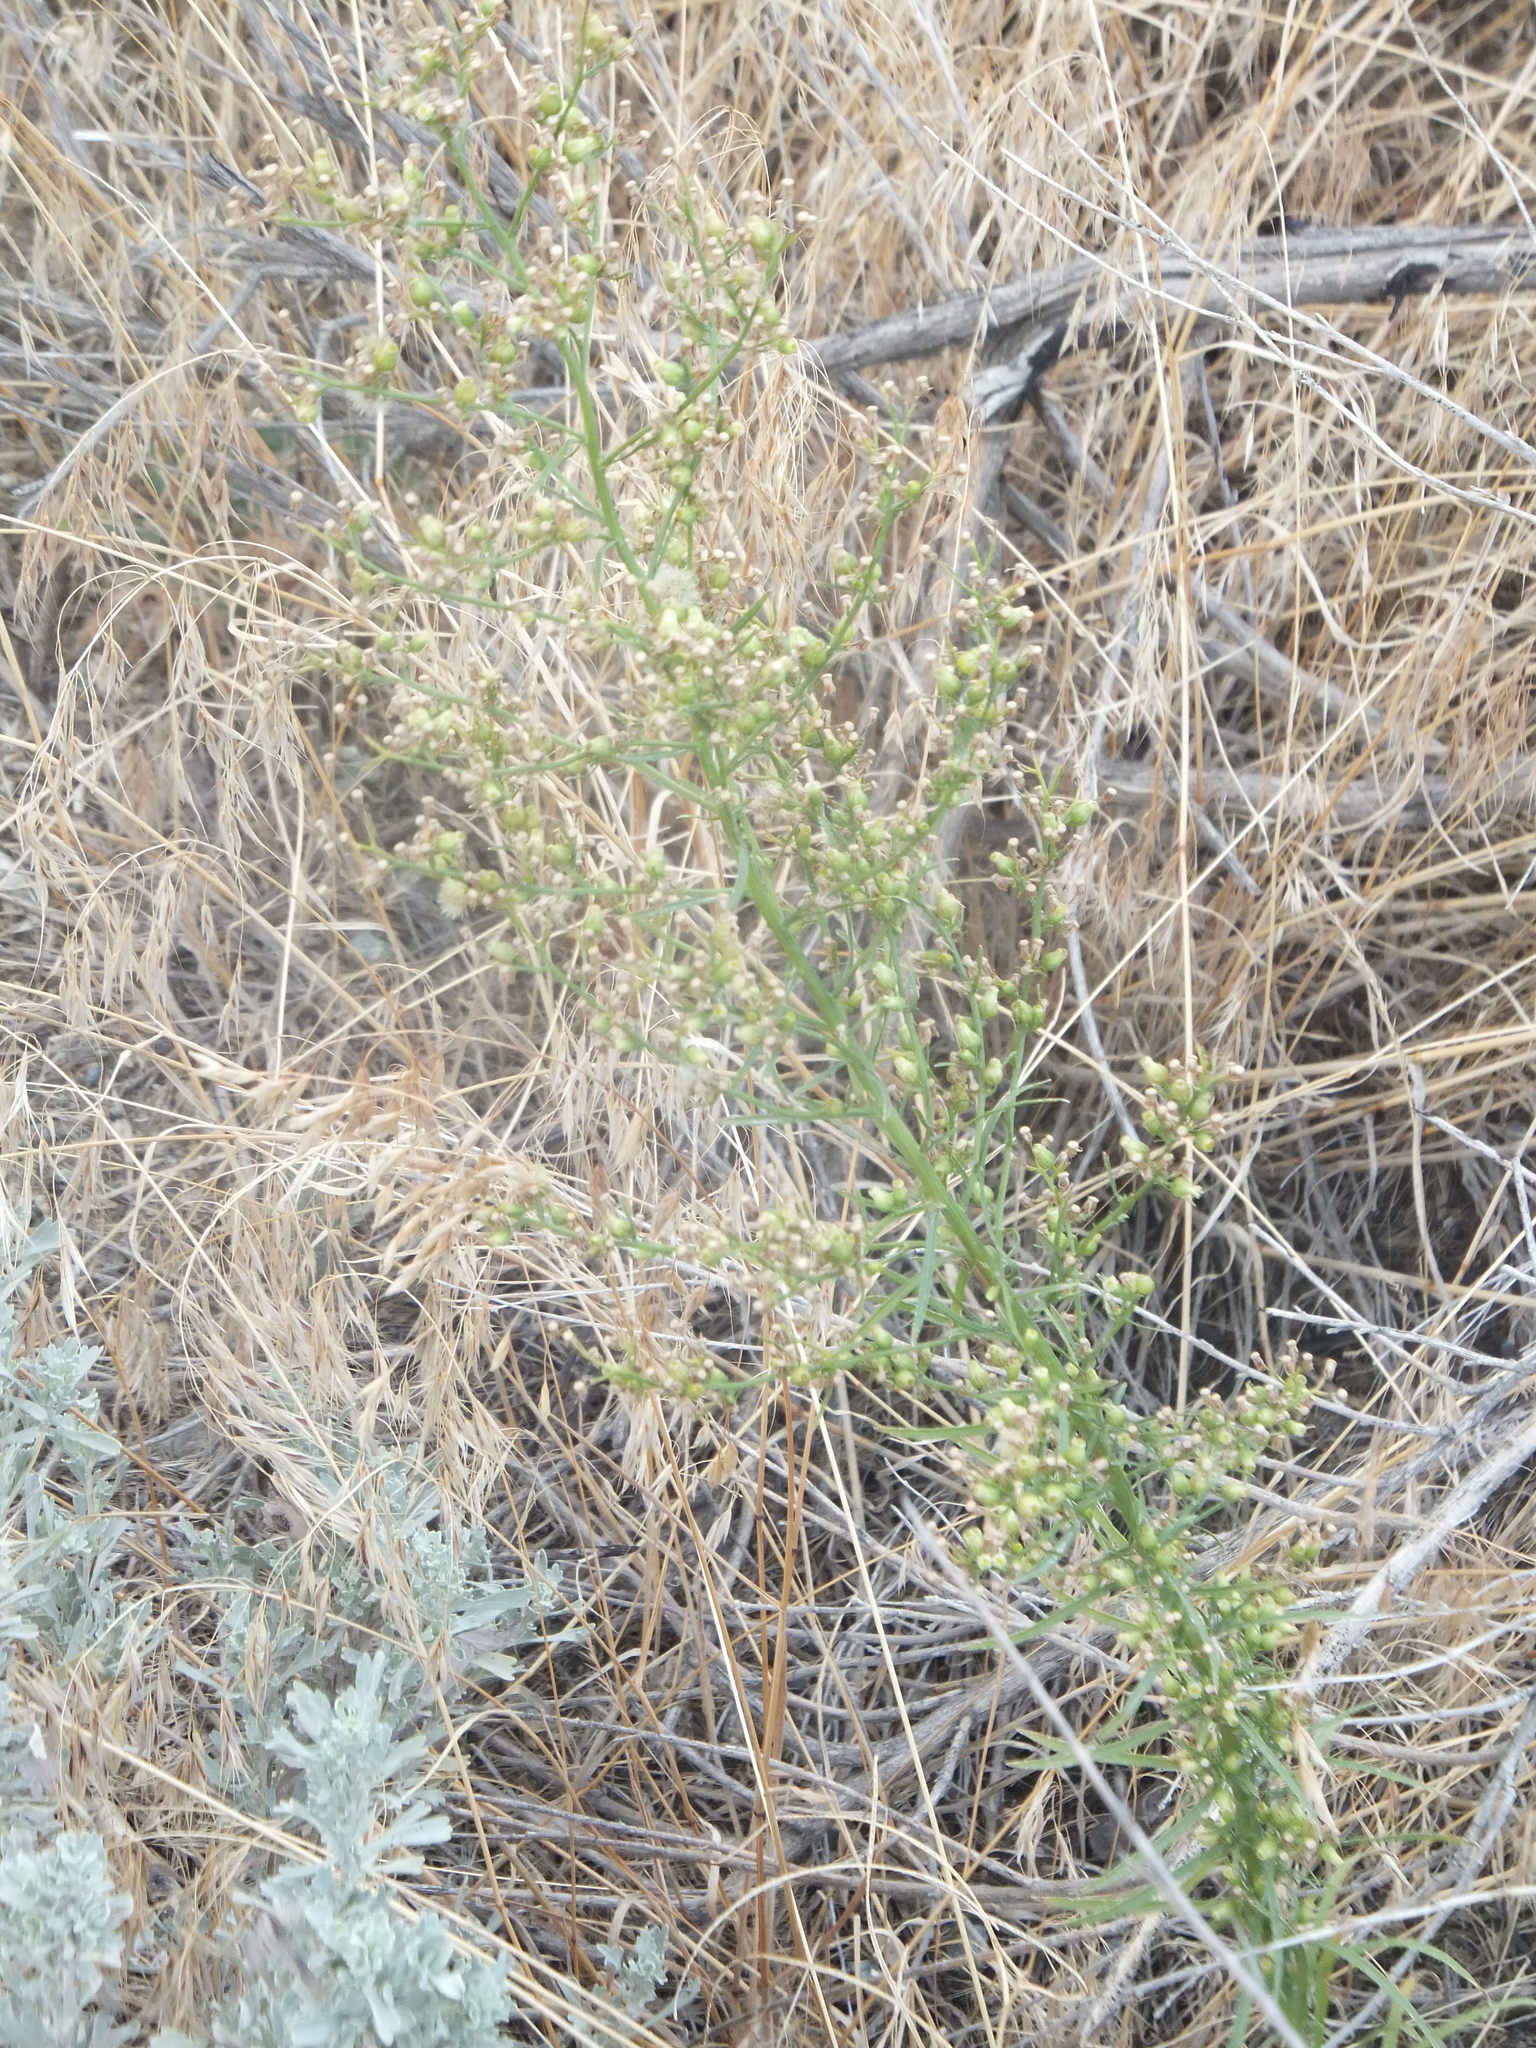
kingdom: Plantae
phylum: Tracheophyta
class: Magnoliopsida
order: Asterales
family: Asteraceae
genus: Erigeron
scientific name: Erigeron canadensis
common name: Canadian fleabane
